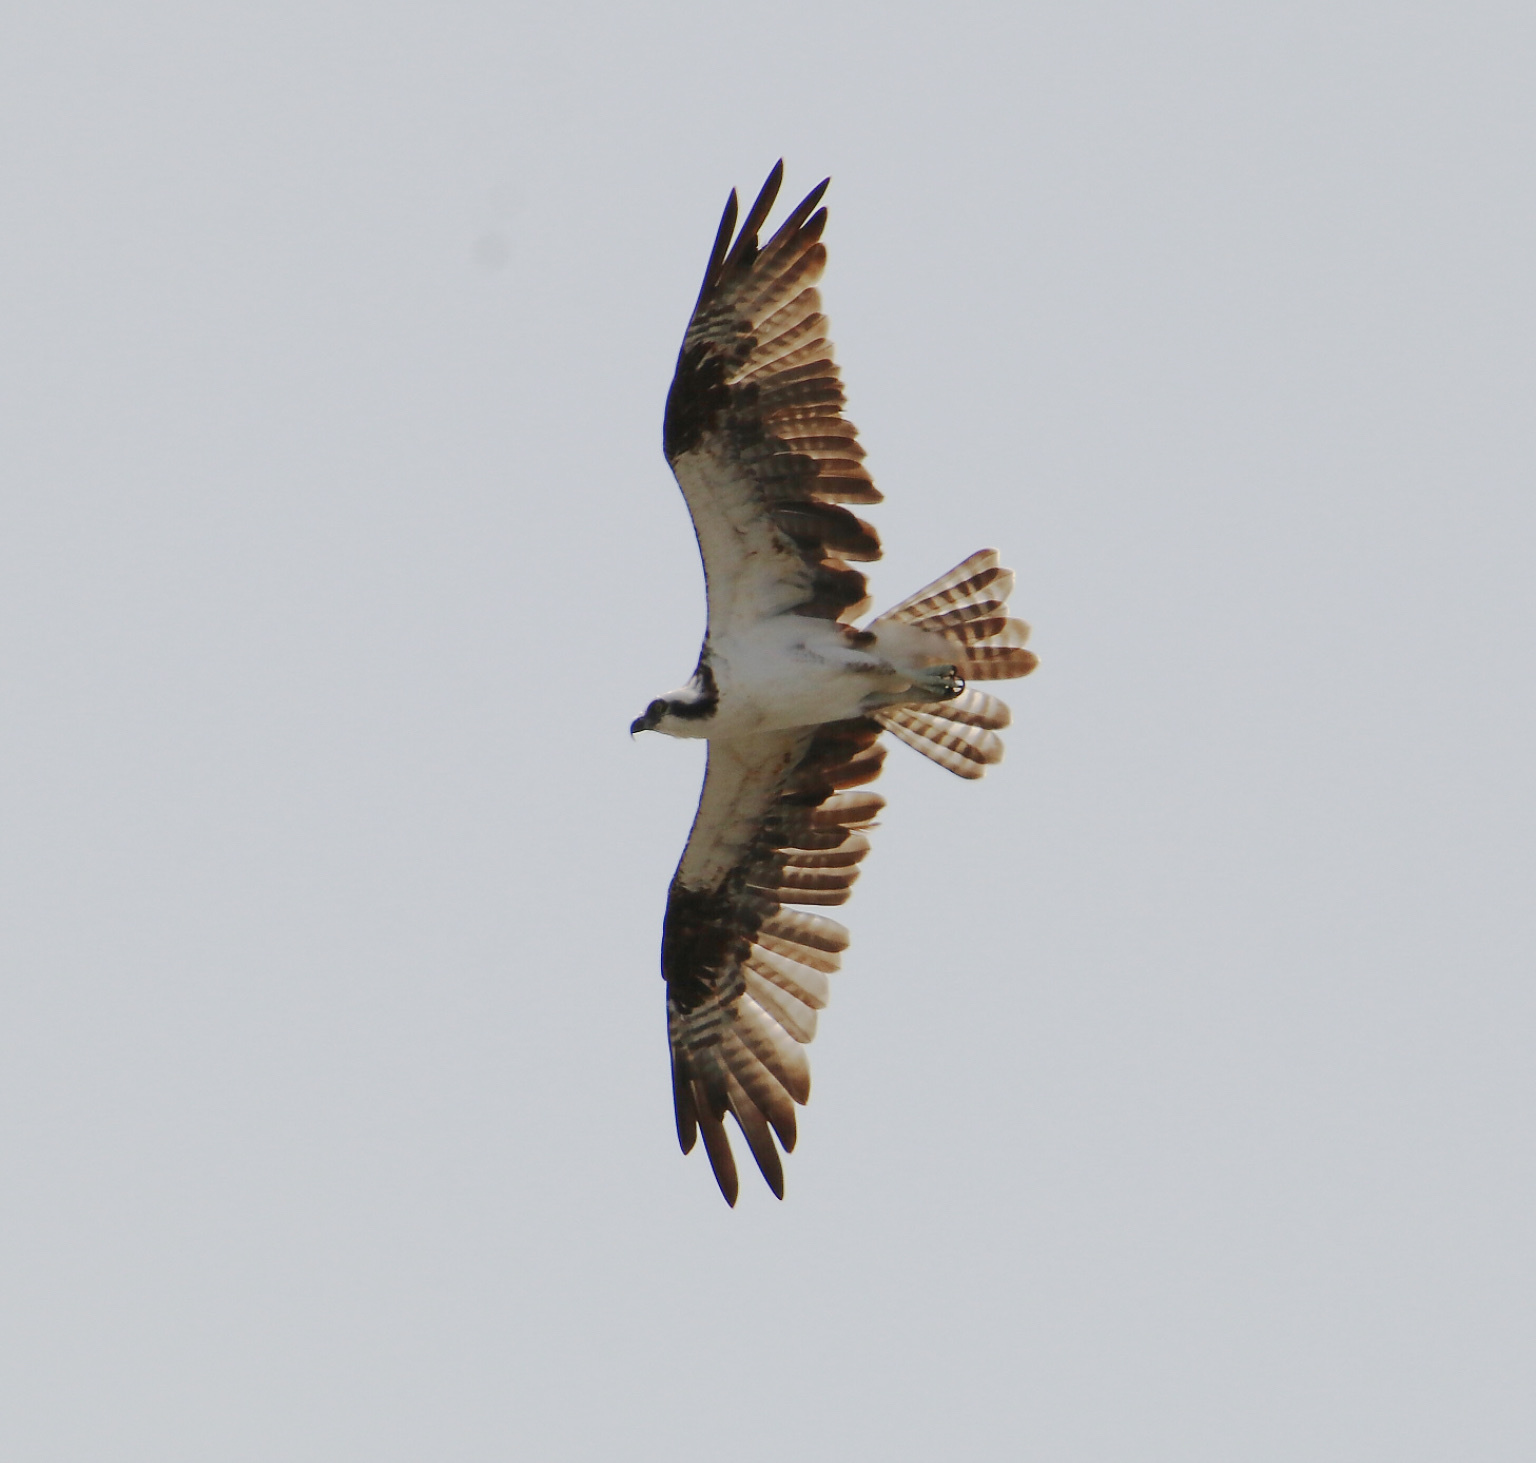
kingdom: Animalia
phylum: Chordata
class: Aves
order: Accipitriformes
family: Pandionidae
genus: Pandion
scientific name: Pandion haliaetus
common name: Osprey
